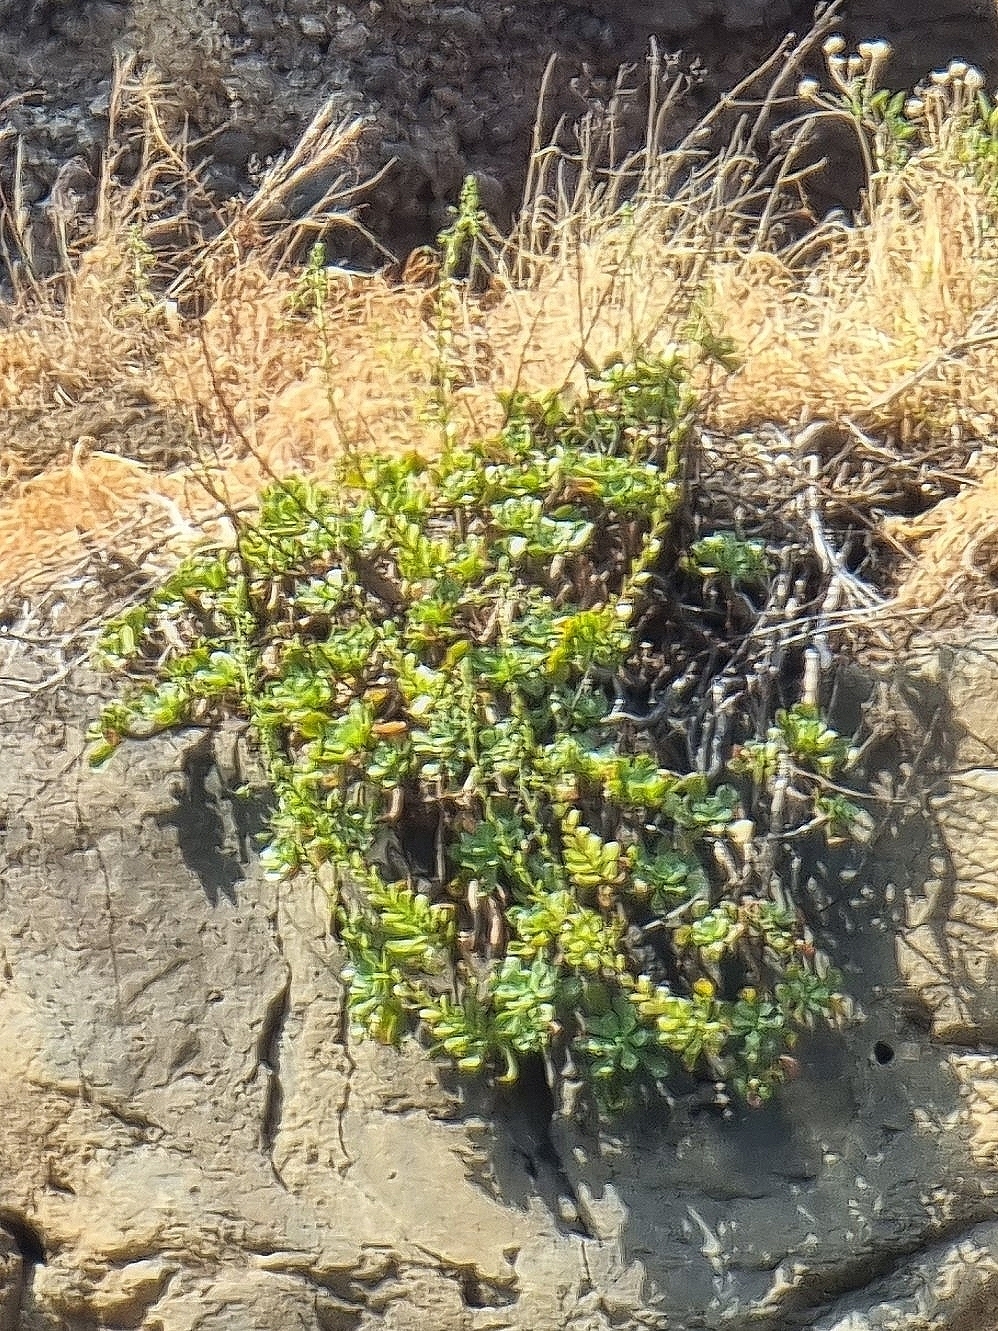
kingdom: Plantae
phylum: Tracheophyta
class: Magnoliopsida
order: Saxifragales
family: Crassulaceae
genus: Aeonium
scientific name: Aeonium glutinosum
